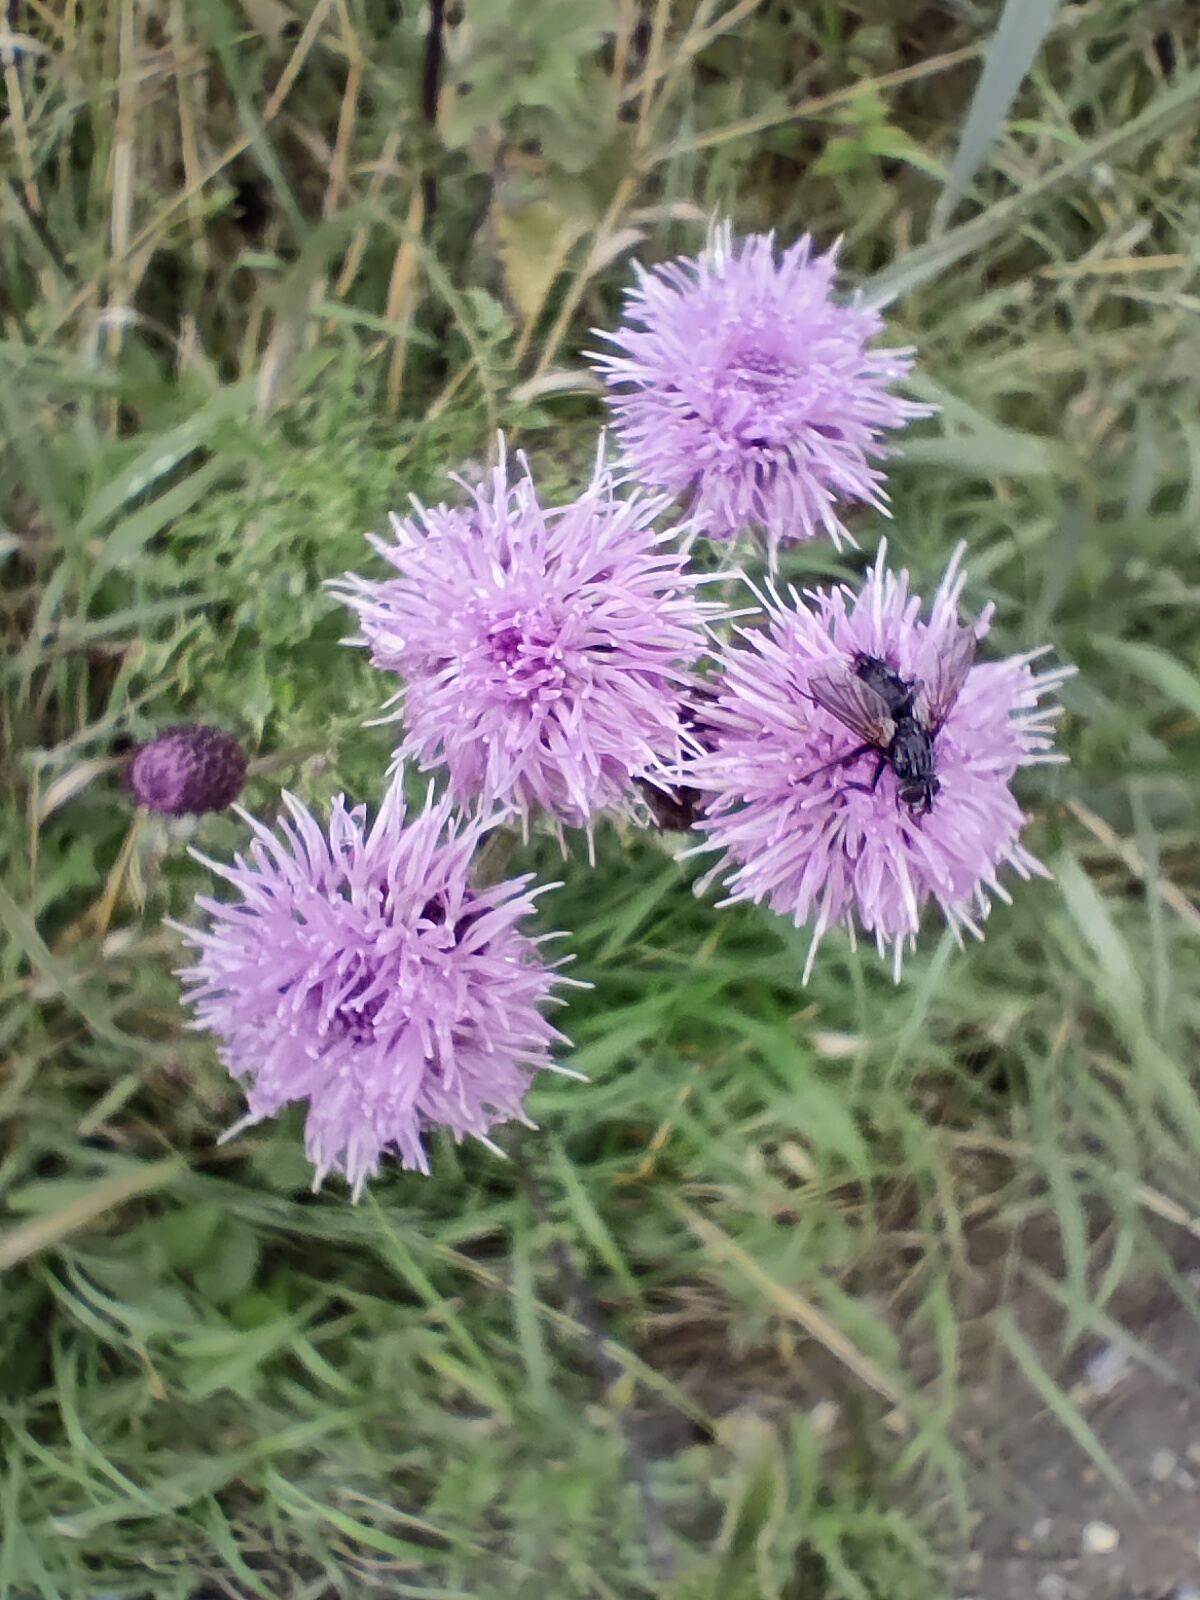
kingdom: Animalia
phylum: Arthropoda
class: Insecta
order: Diptera
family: Tachinidae
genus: Eriothrix
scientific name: Eriothrix rufomaculatus
